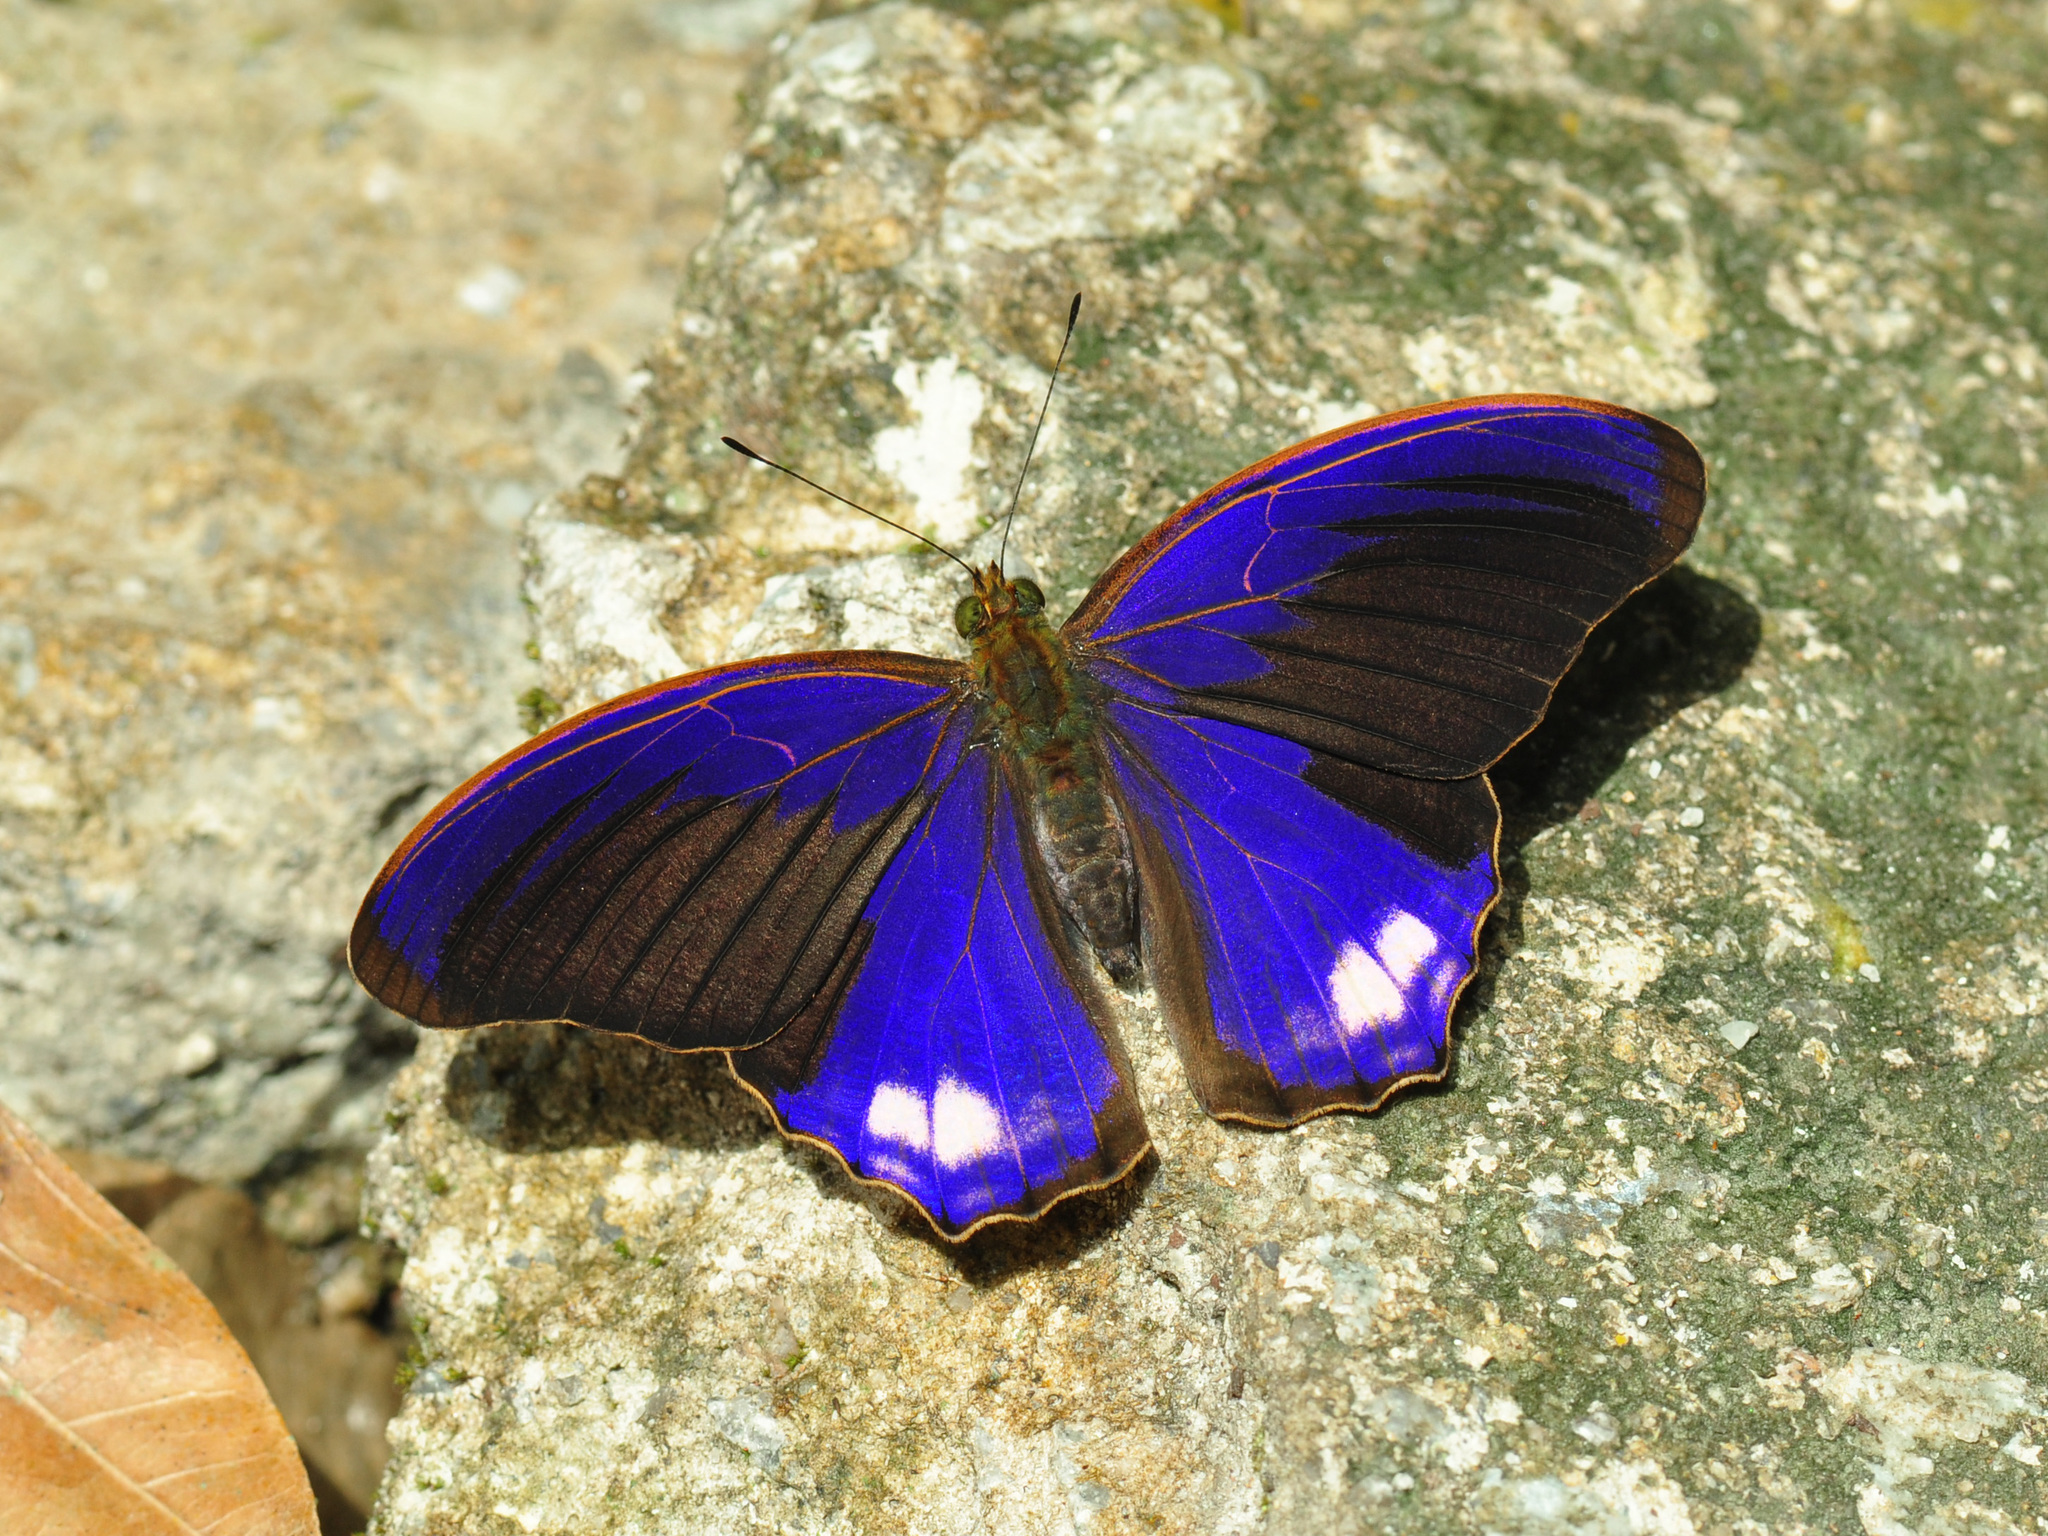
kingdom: Animalia
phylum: Arthropoda
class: Insecta
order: Lepidoptera
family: Nymphalidae
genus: Terinos
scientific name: Terinos terpander
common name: Royal assyrian
